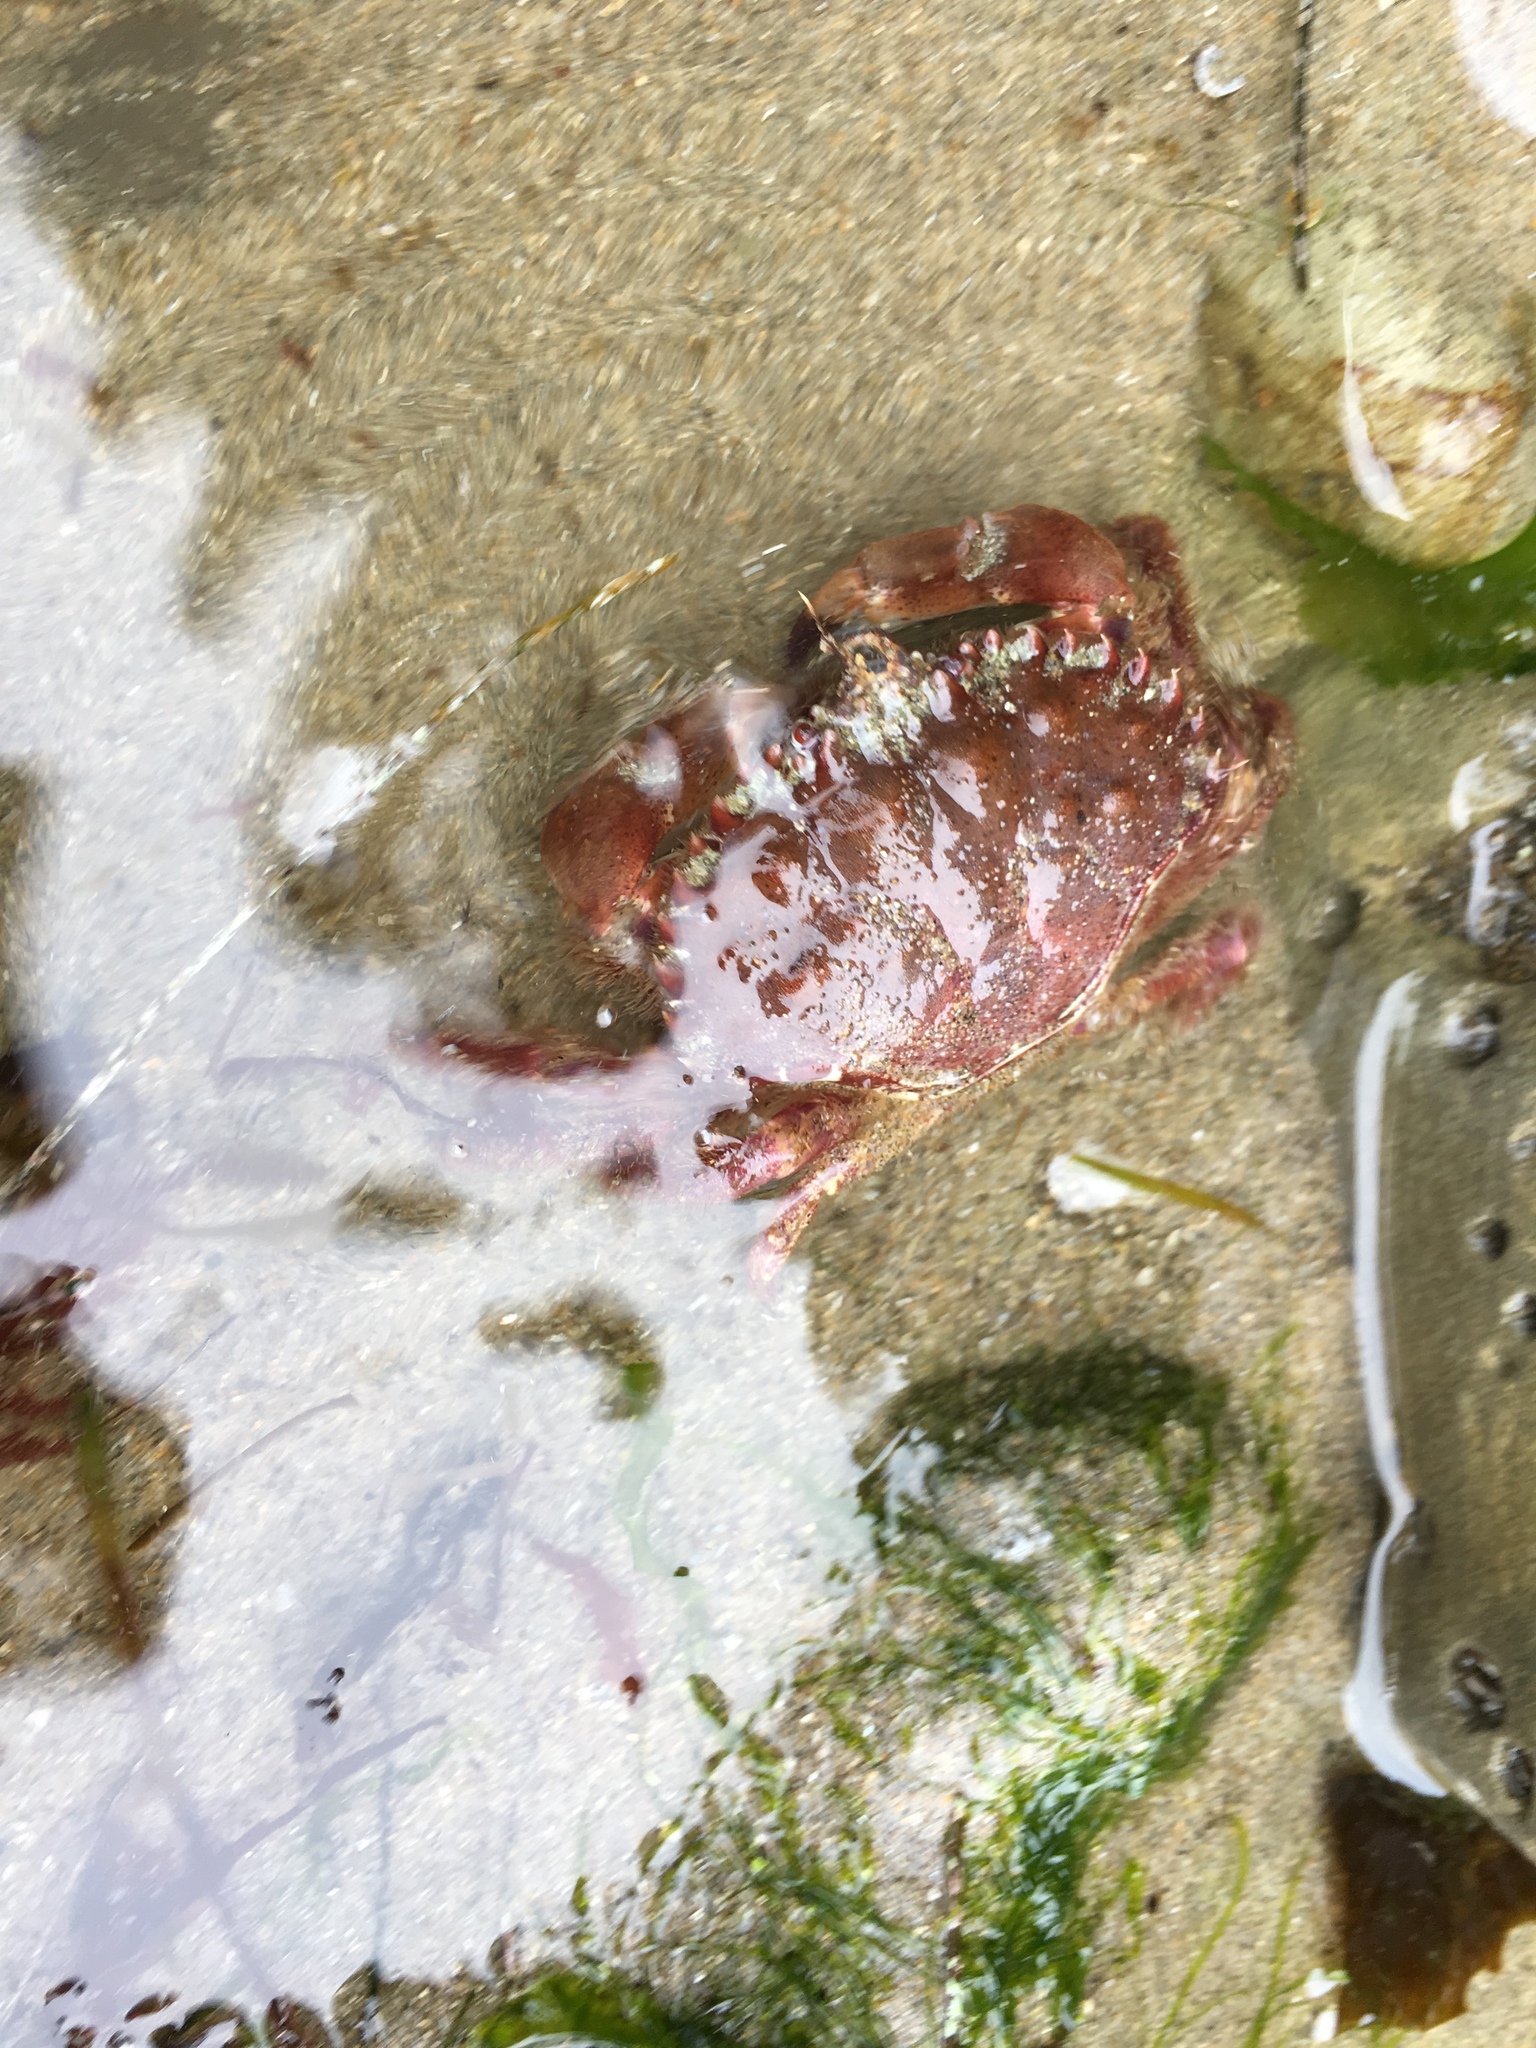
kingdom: Animalia
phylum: Arthropoda
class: Malacostraca
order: Decapoda
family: Cancridae
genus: Romaleon
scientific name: Romaleon antennarium
